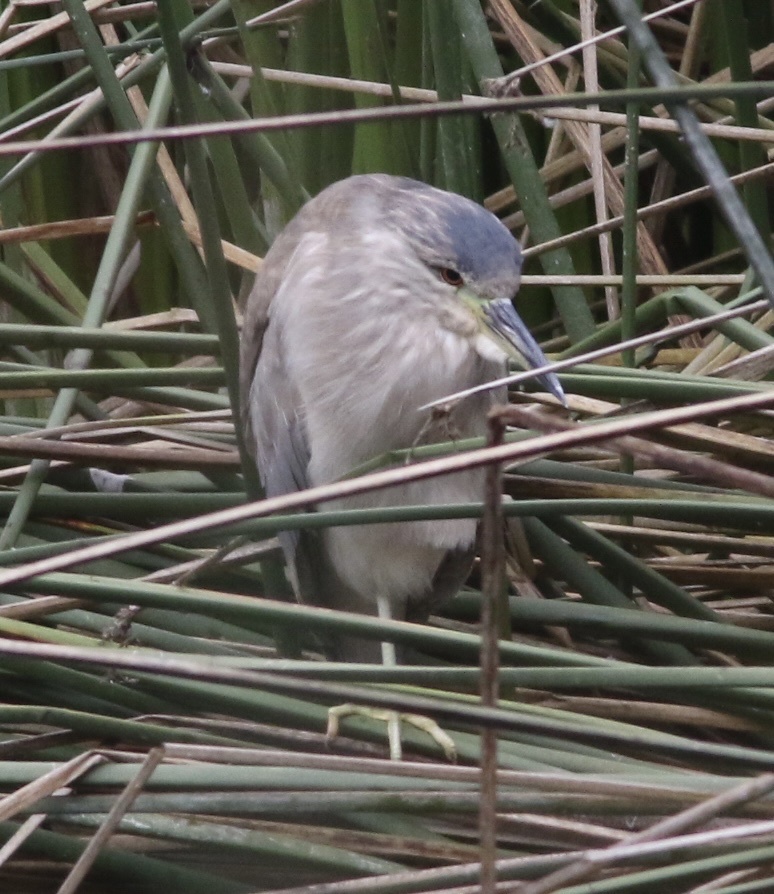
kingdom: Animalia
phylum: Chordata
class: Aves
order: Pelecaniformes
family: Ardeidae
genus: Nycticorax
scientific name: Nycticorax nycticorax
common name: Black-crowned night heron
